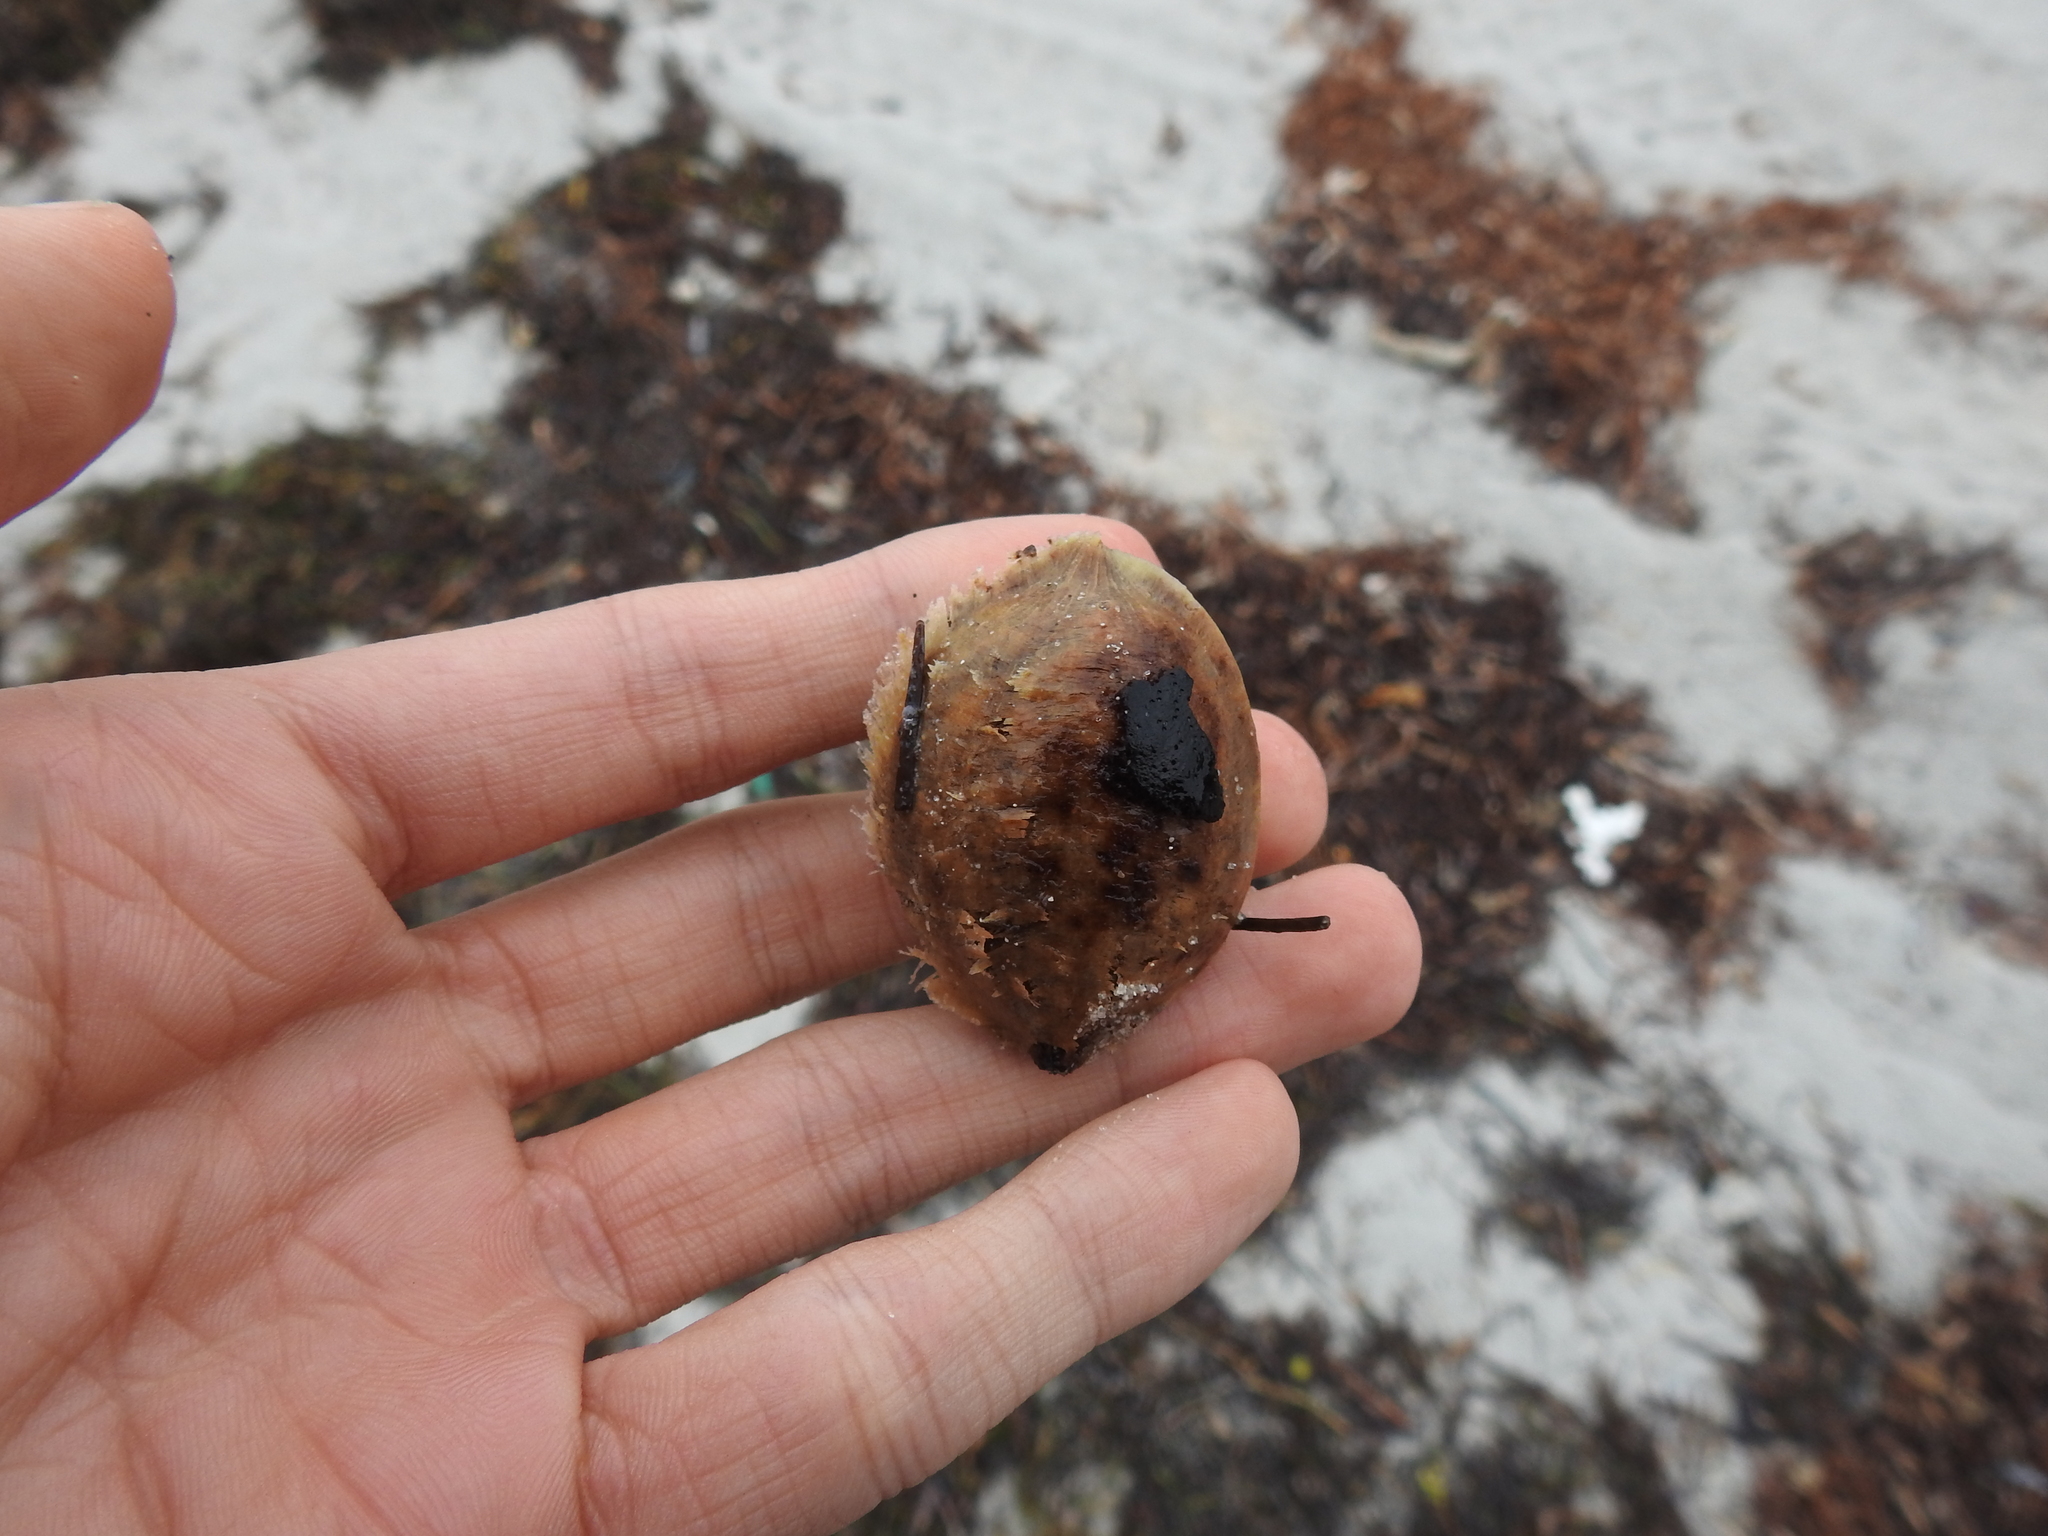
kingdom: Plantae
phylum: Tracheophyta
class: Magnoliopsida
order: Myrtales
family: Combretaceae
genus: Terminalia
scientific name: Terminalia catappa
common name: Tropical almond
